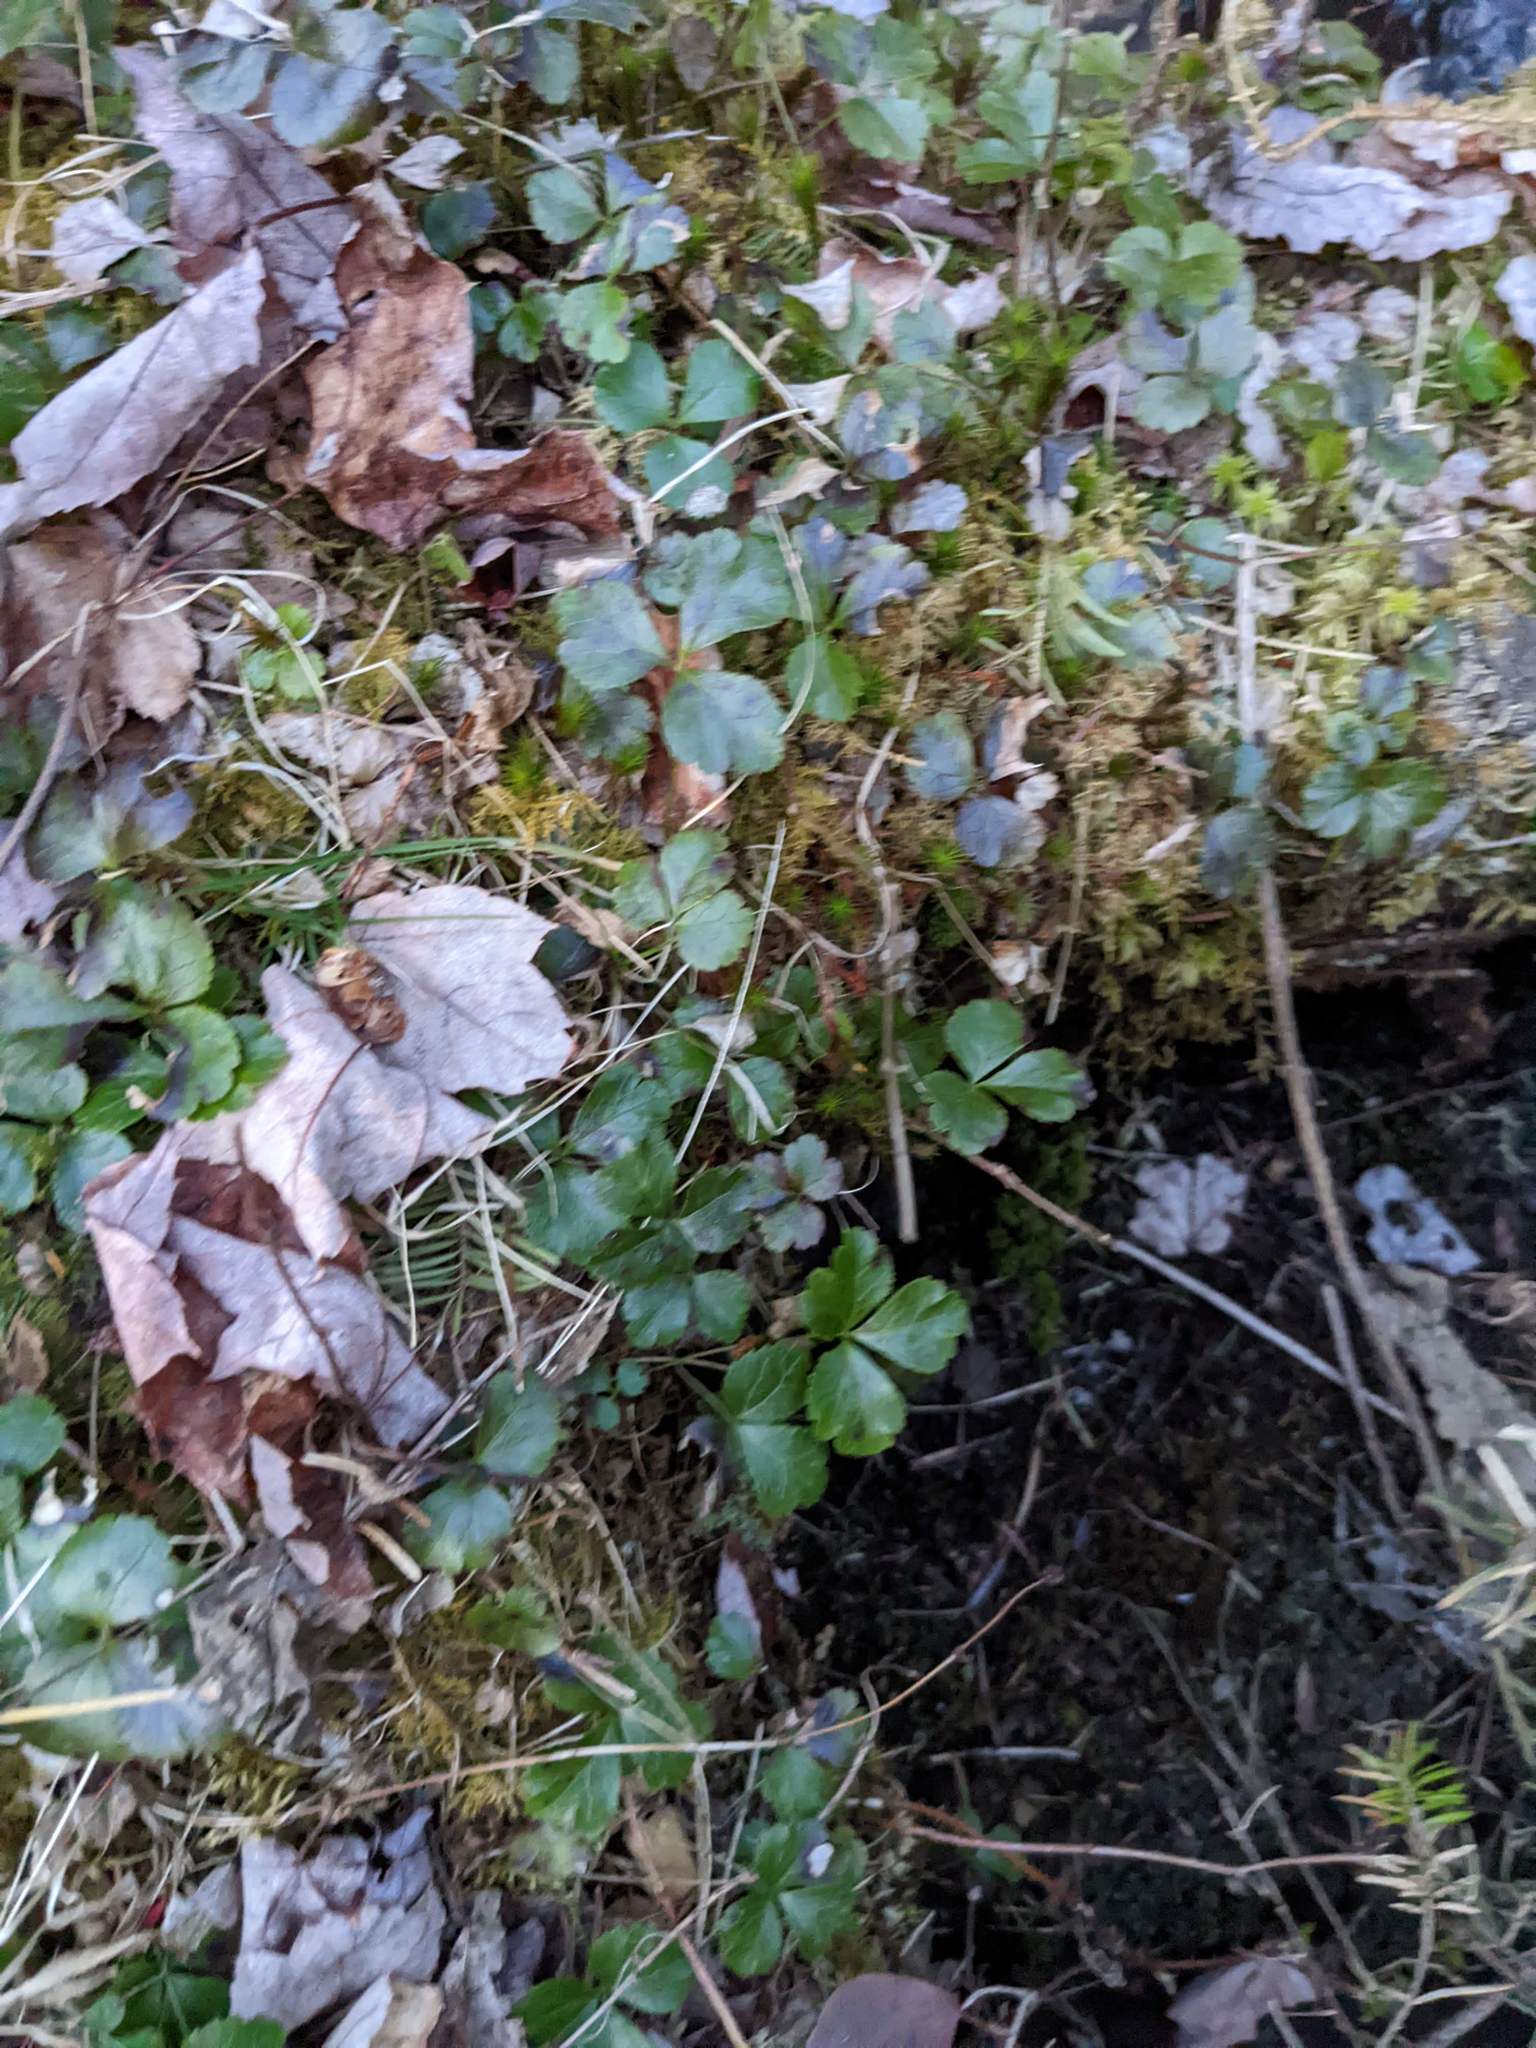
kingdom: Plantae
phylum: Tracheophyta
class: Magnoliopsida
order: Ranunculales
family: Ranunculaceae
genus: Coptis
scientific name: Coptis trifolia
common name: Canker-root
